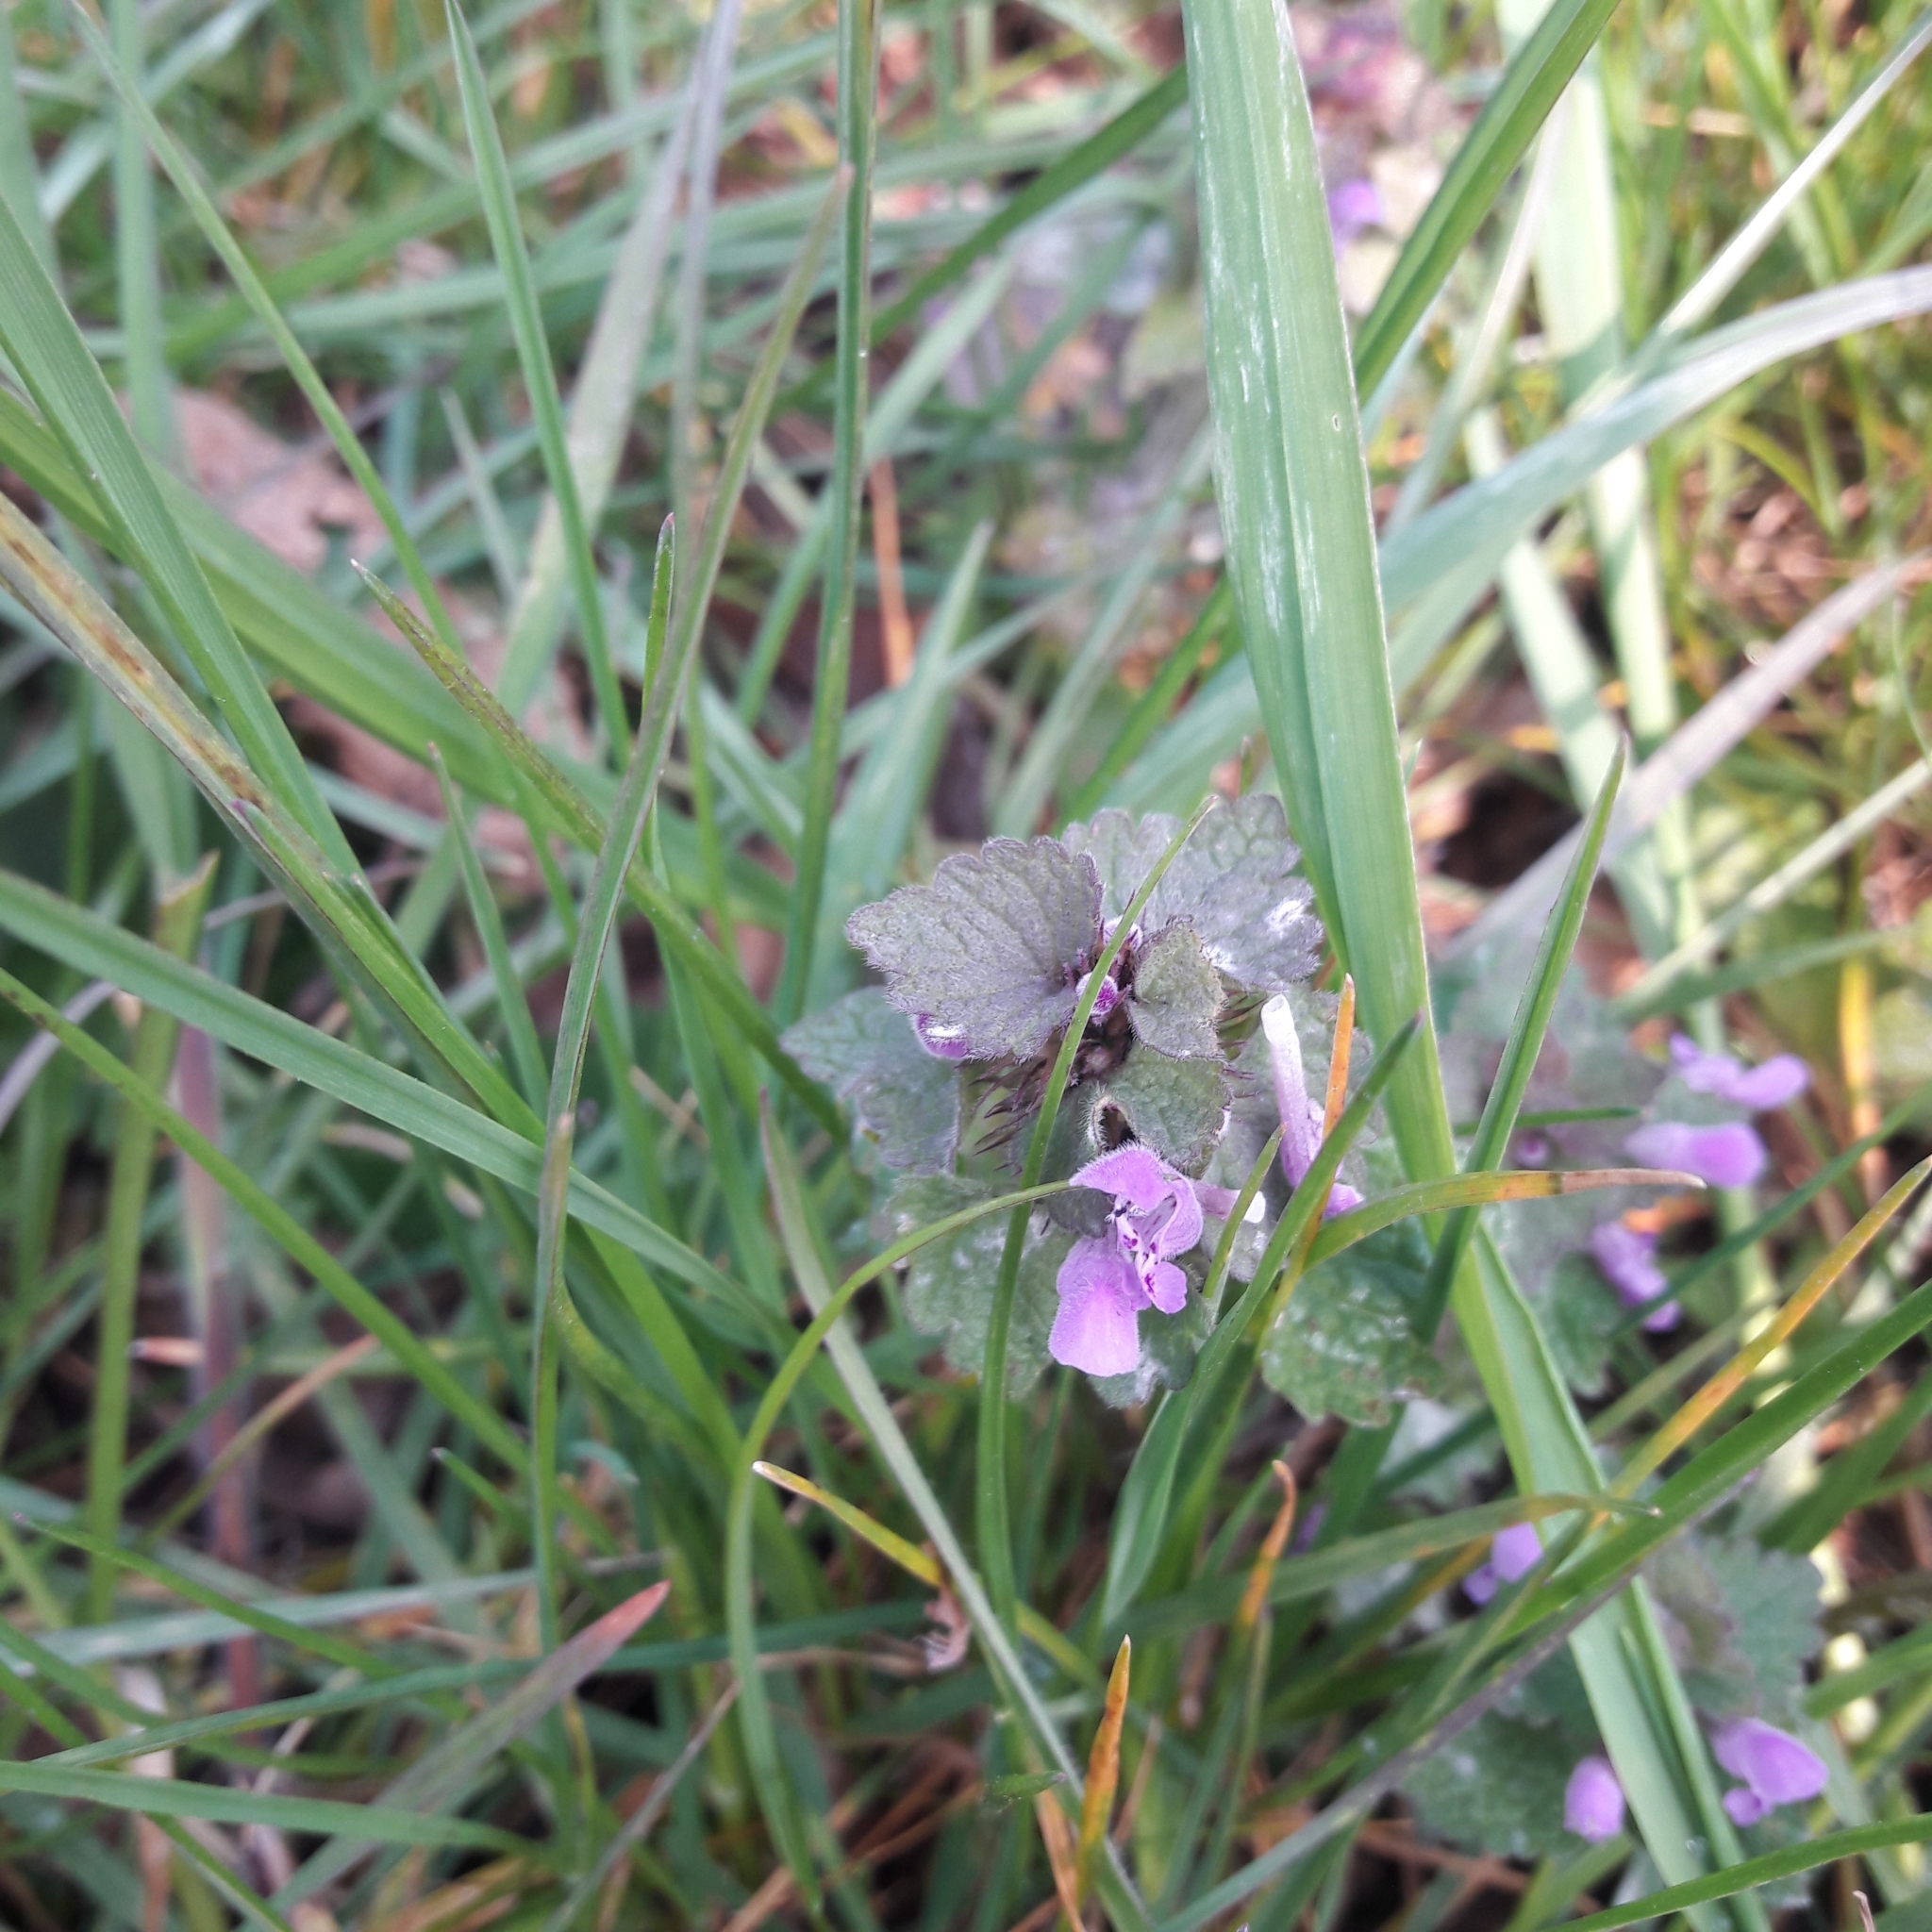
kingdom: Plantae
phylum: Tracheophyta
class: Magnoliopsida
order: Lamiales
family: Lamiaceae
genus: Lamium
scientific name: Lamium purpureum
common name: Red dead-nettle
